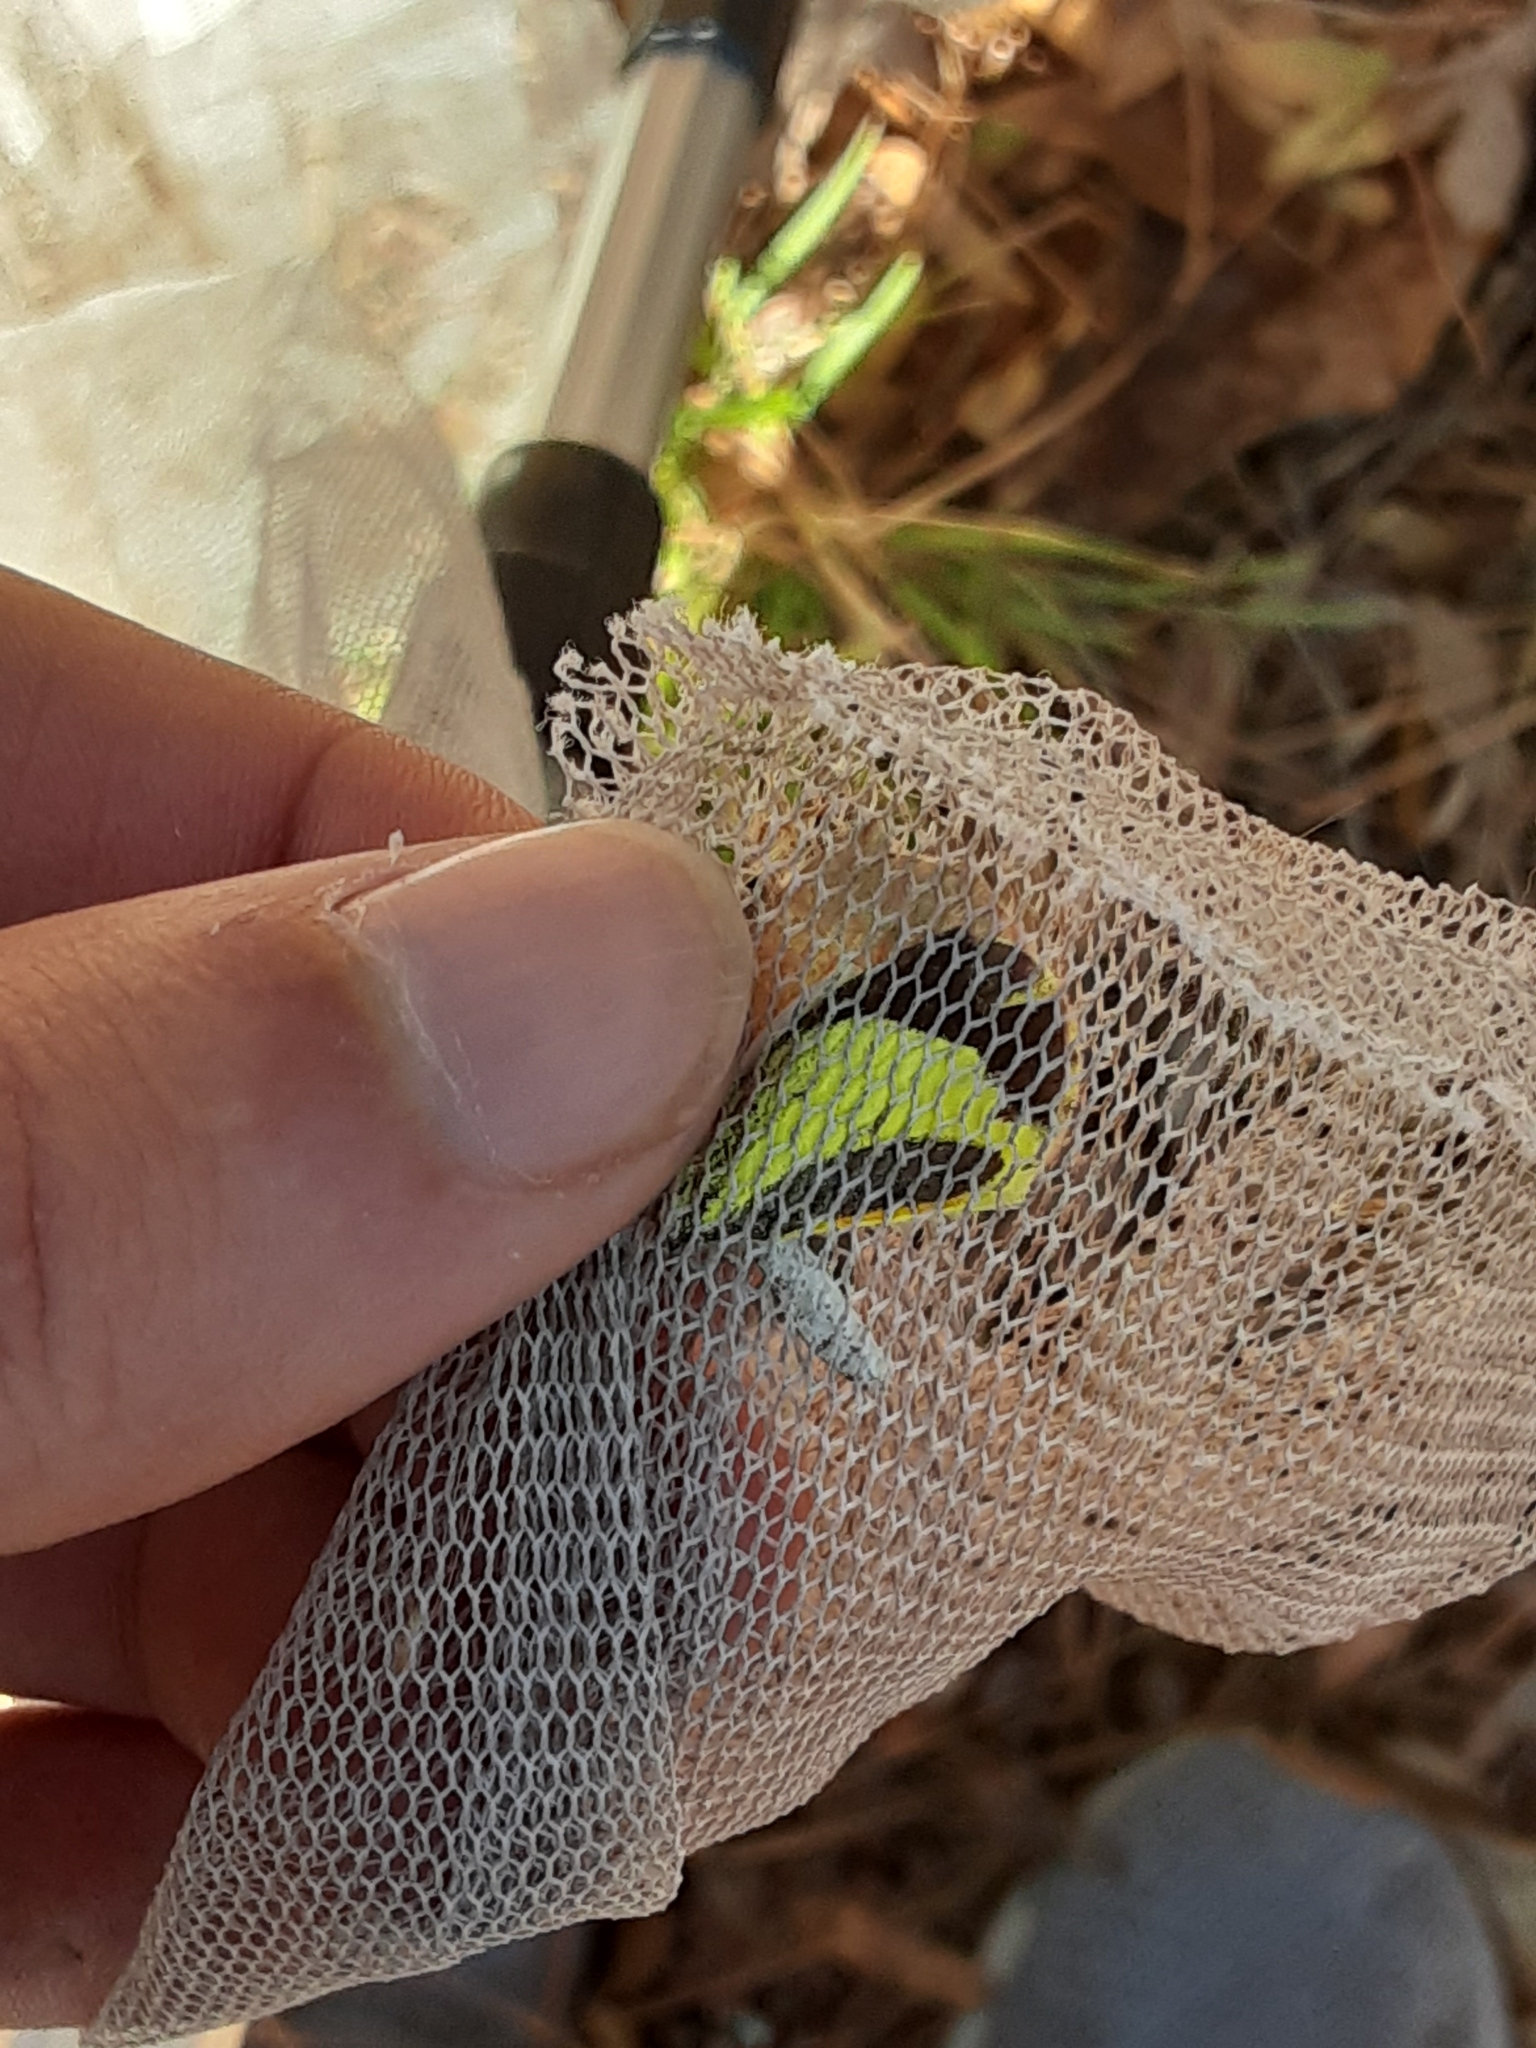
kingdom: Animalia
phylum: Arthropoda
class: Insecta
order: Lepidoptera
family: Pieridae
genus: Eurema
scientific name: Eurema daira
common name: Barred sulphur
